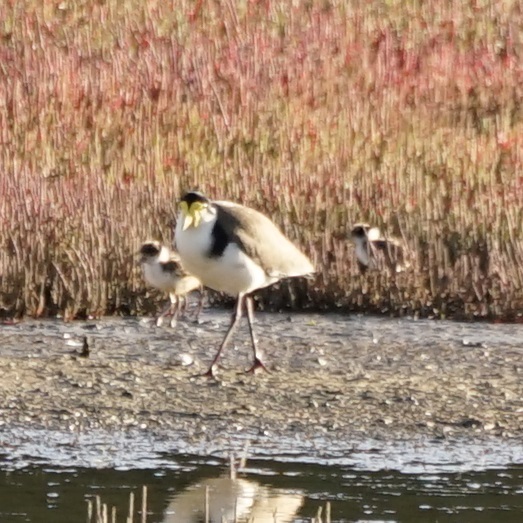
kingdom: Animalia
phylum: Chordata
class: Aves
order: Charadriiformes
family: Charadriidae
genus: Vanellus
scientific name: Vanellus miles
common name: Masked lapwing
